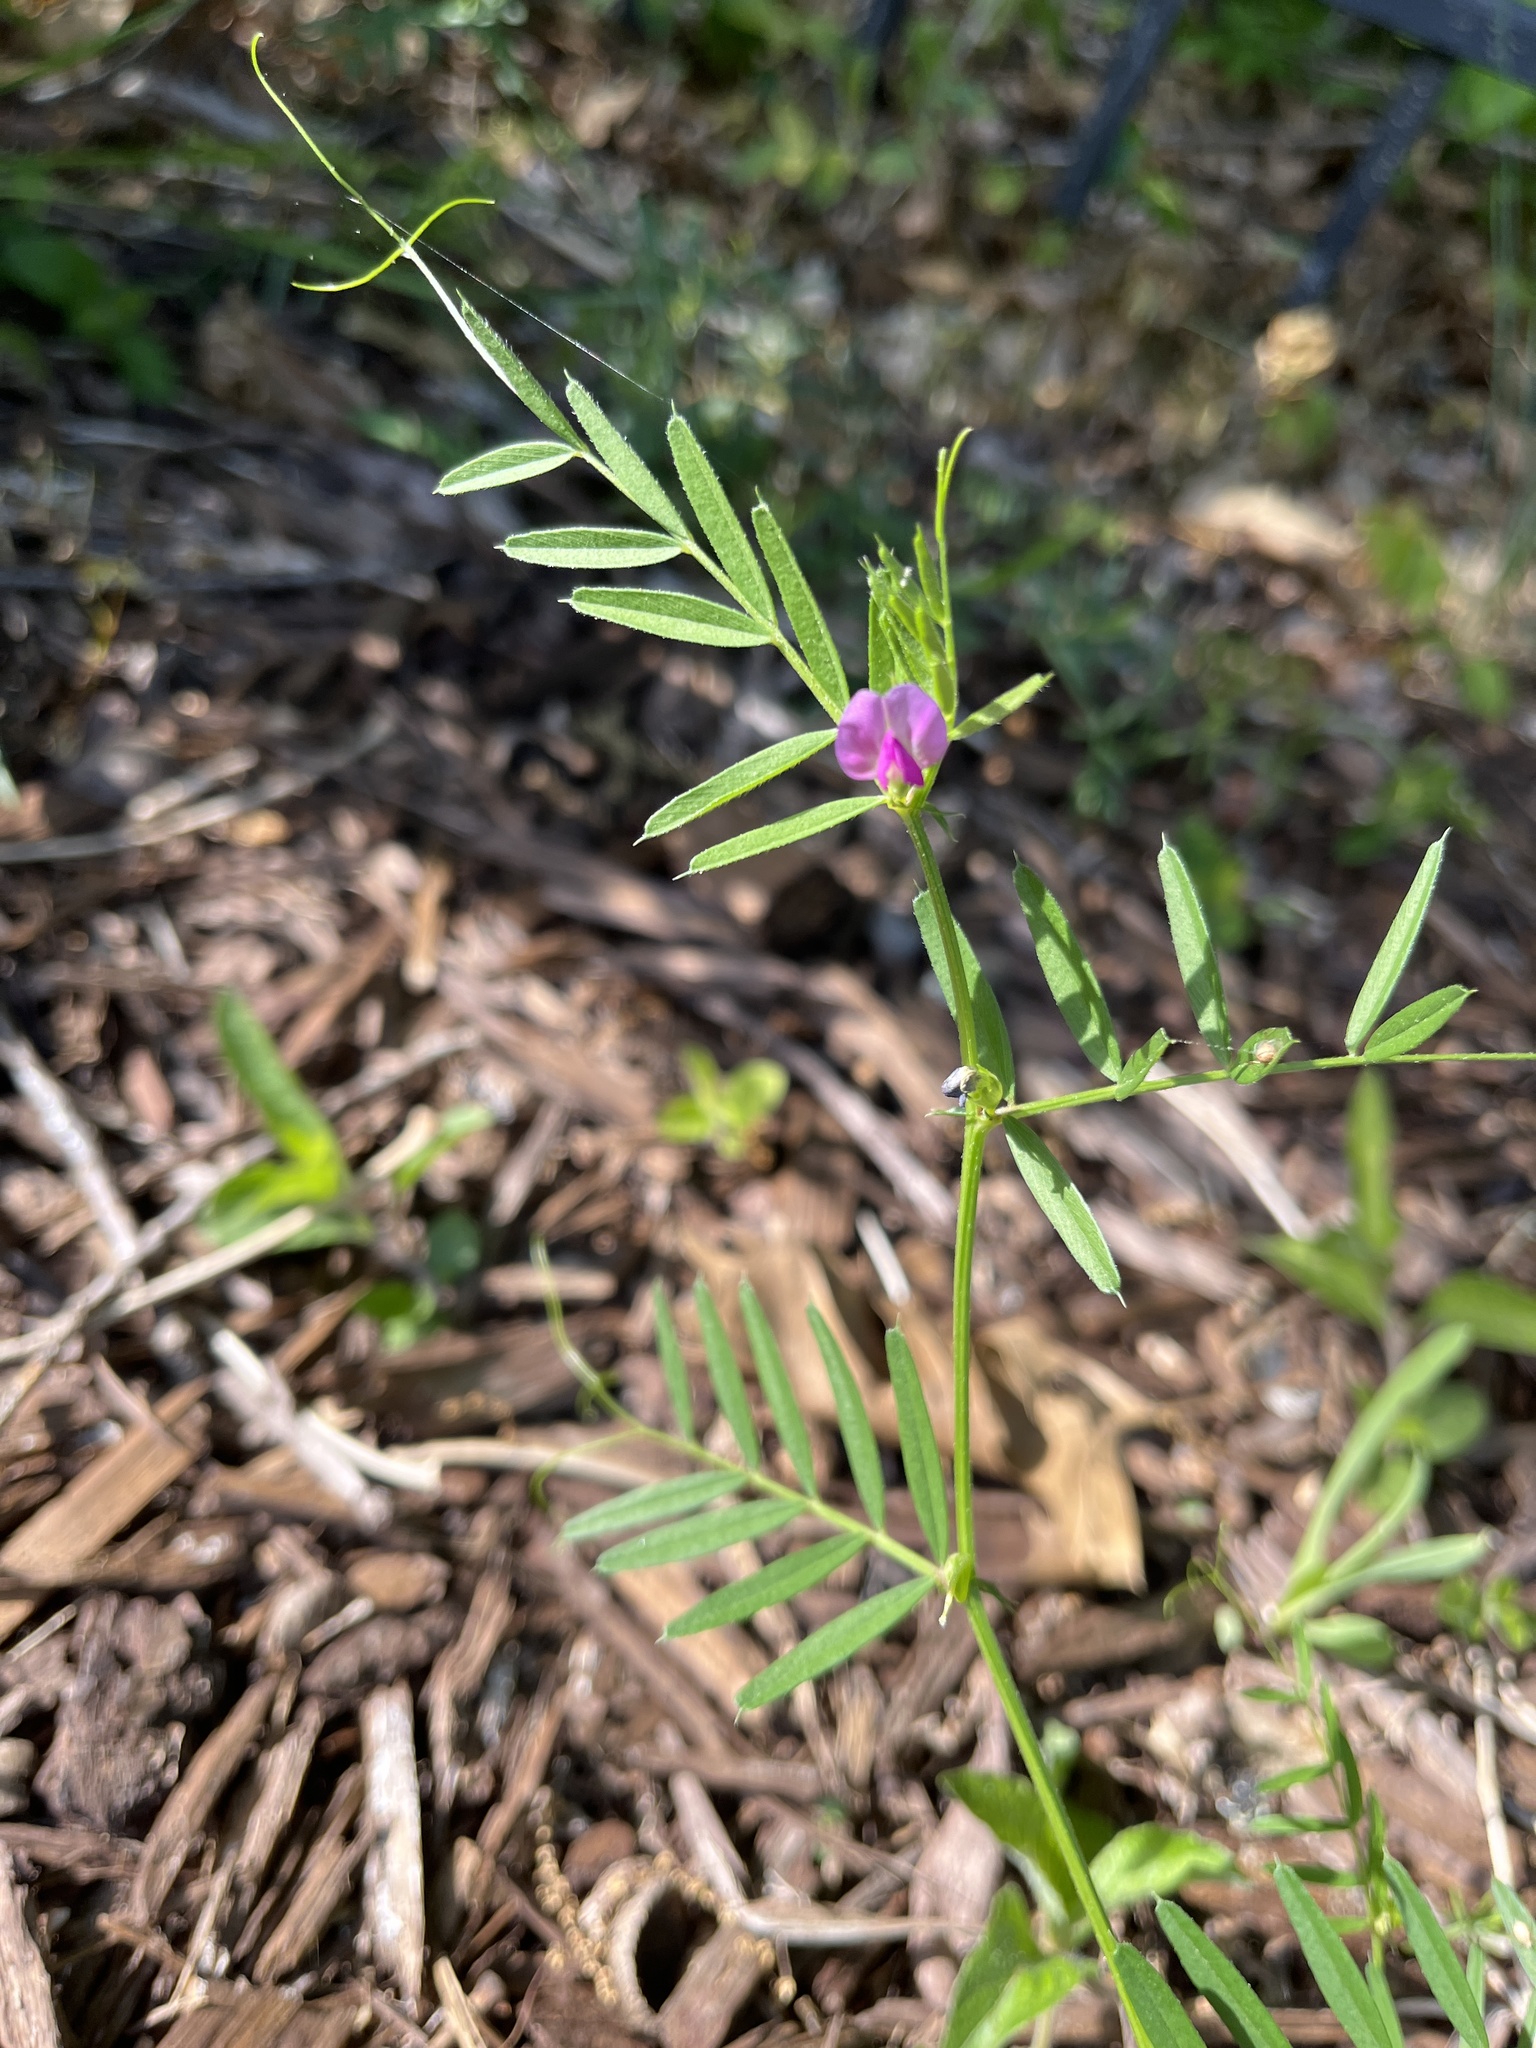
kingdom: Plantae
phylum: Tracheophyta
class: Magnoliopsida
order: Fabales
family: Fabaceae
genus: Vicia
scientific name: Vicia sativa
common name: Garden vetch
